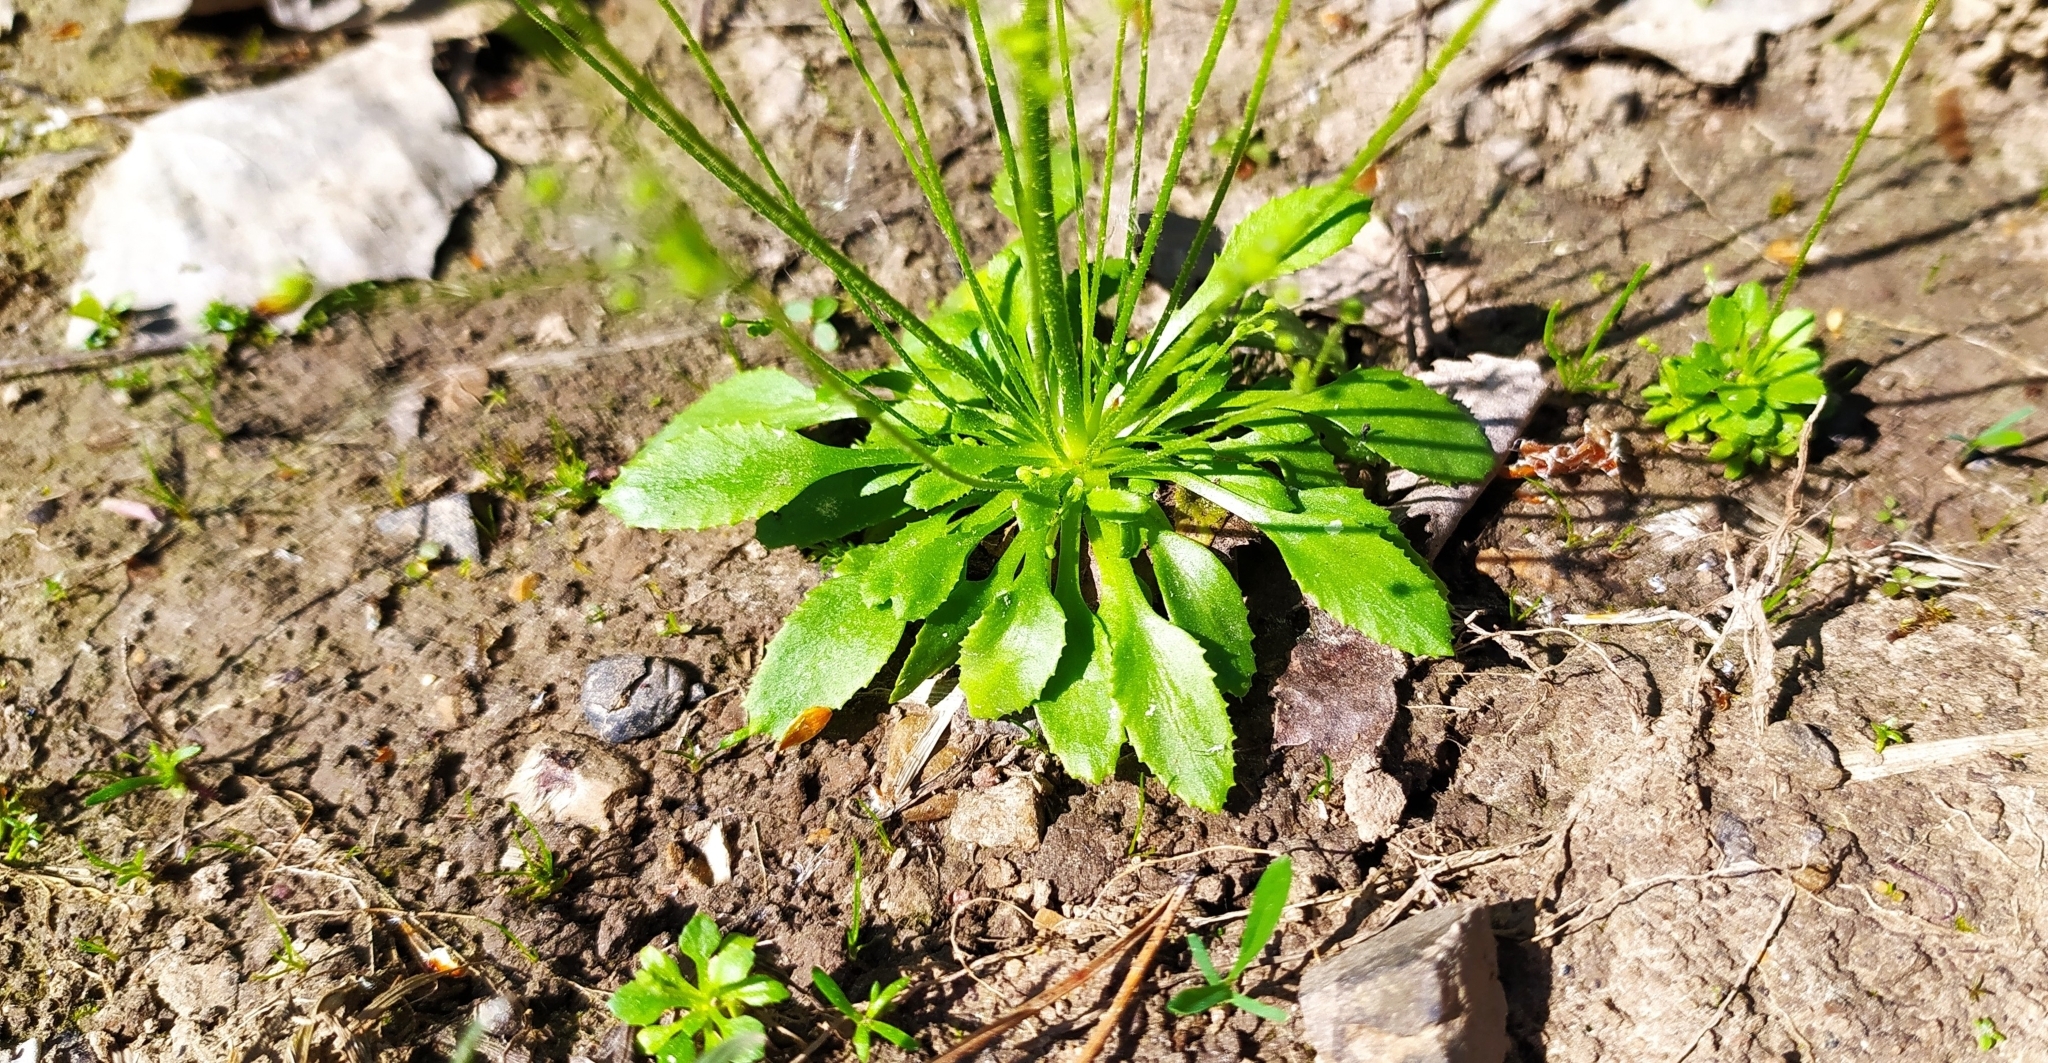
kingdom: Plantae
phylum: Tracheophyta
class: Magnoliopsida
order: Ericales
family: Primulaceae
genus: Androsace
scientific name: Androsace filiformis
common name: Filiform rock jasmine
